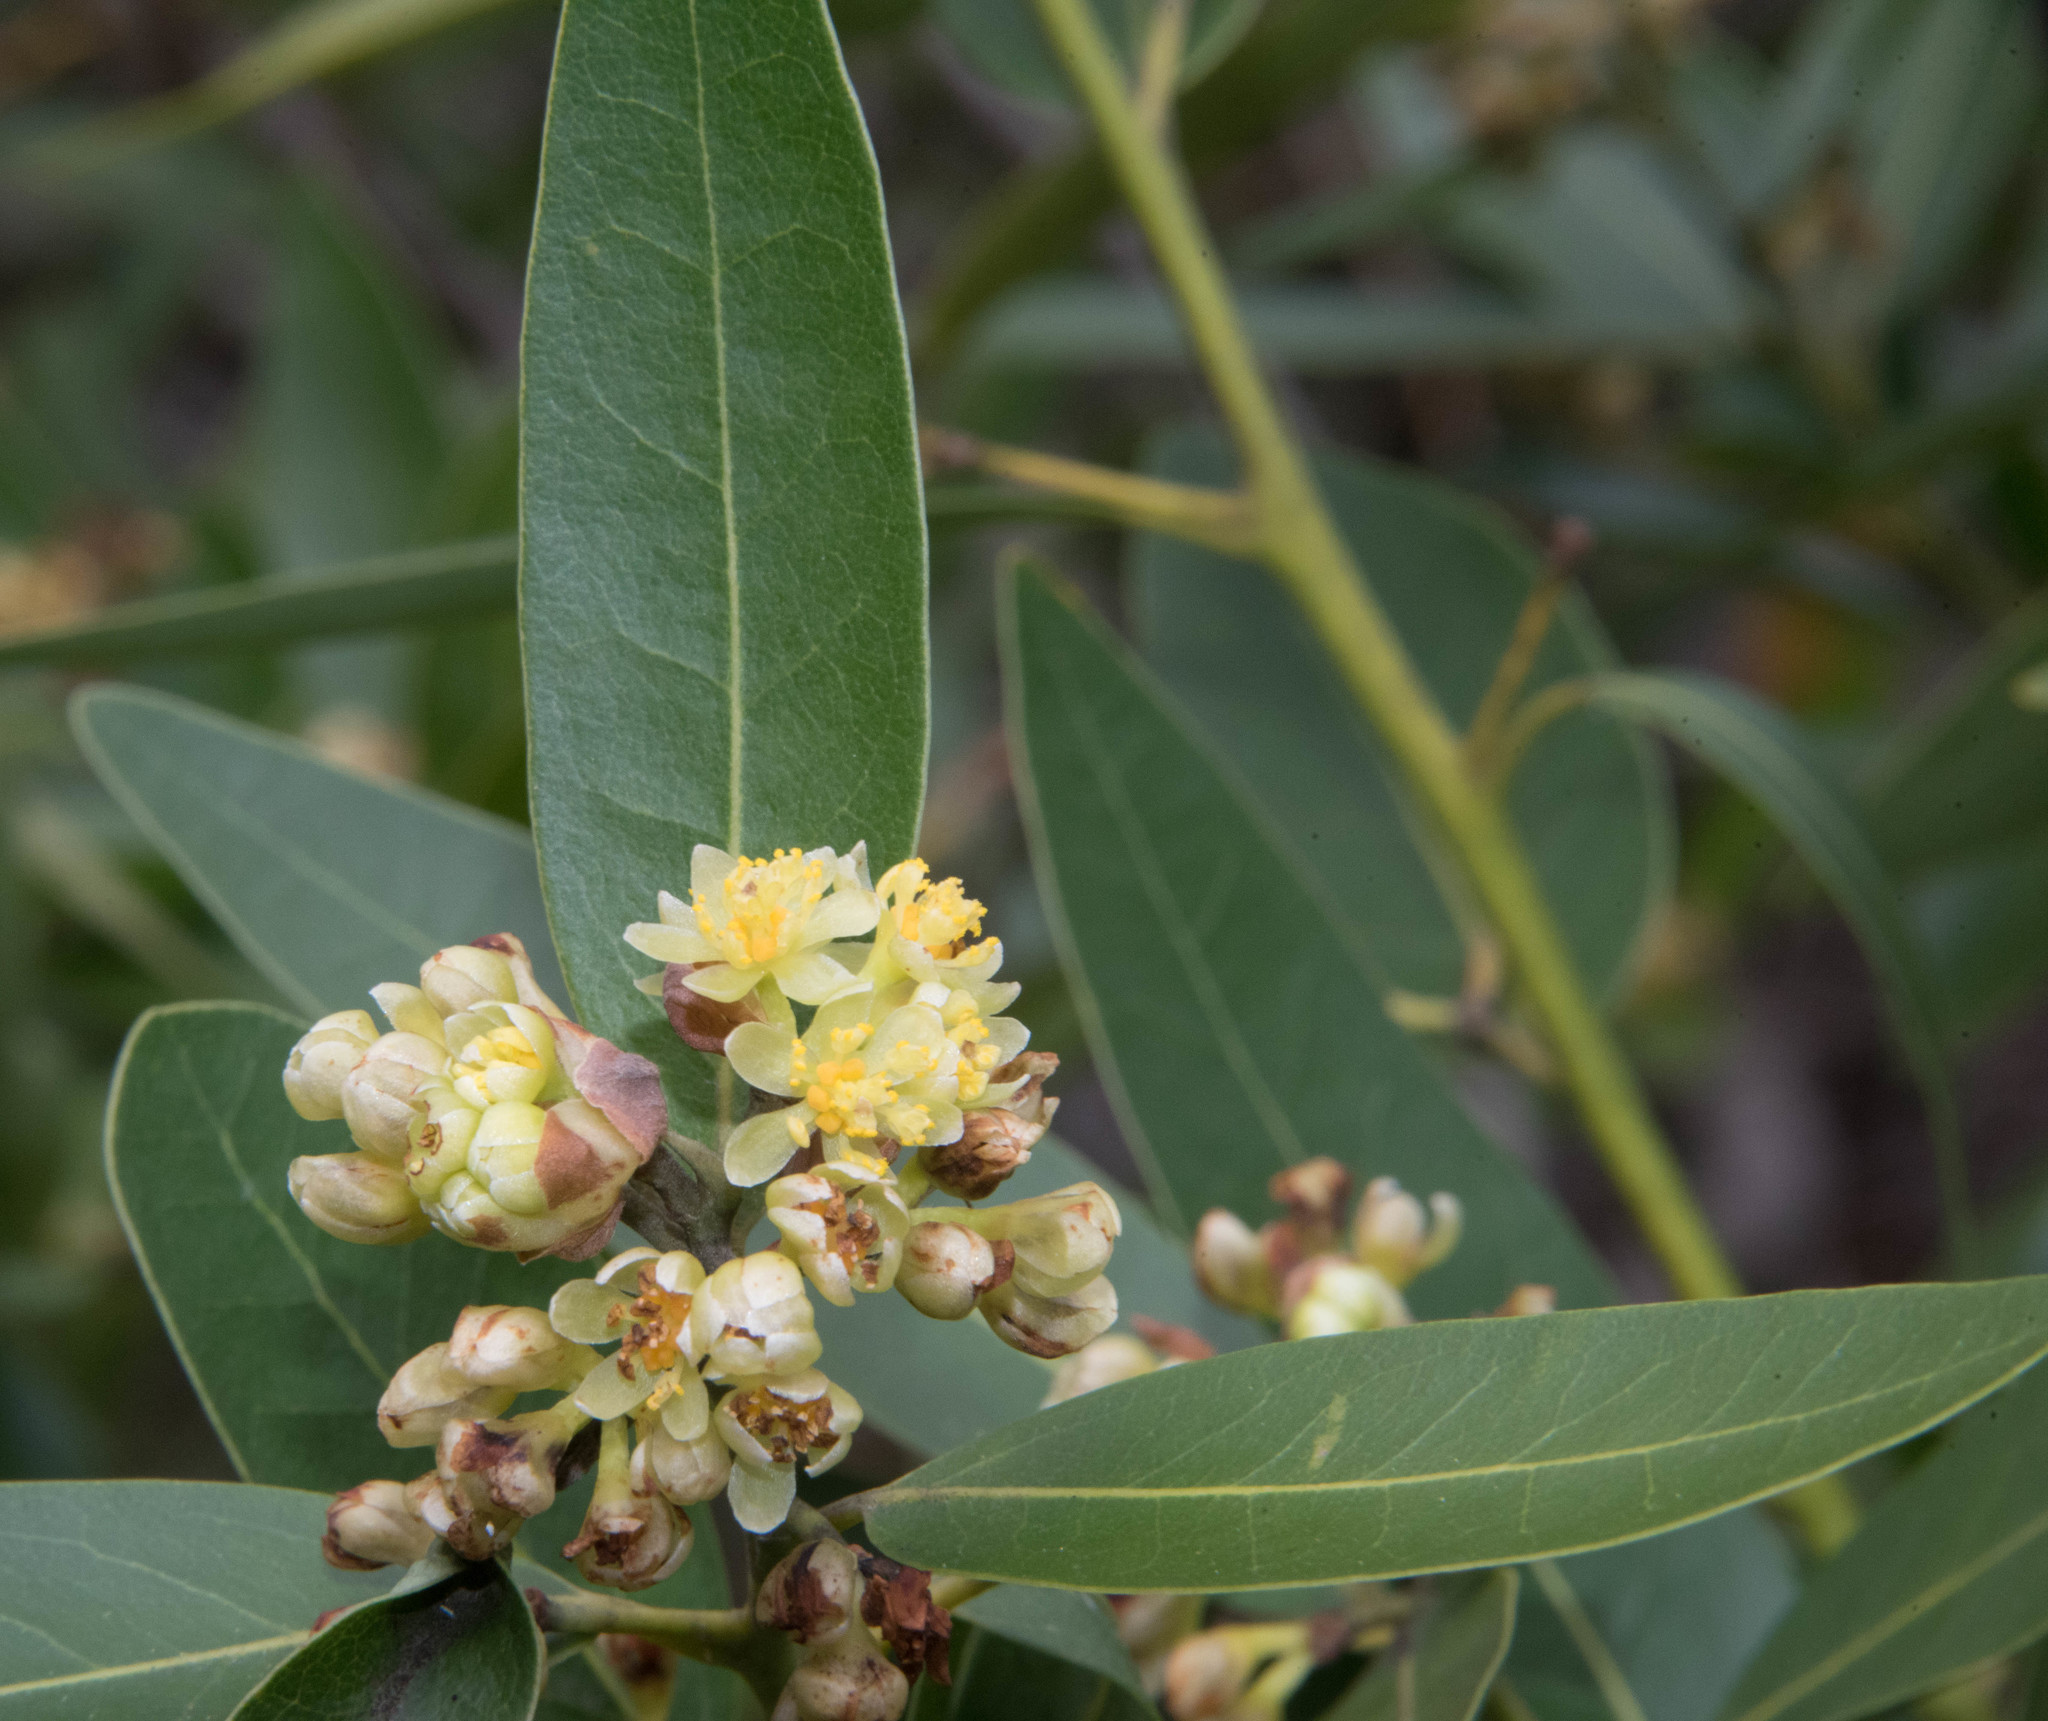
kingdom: Plantae
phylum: Tracheophyta
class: Magnoliopsida
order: Laurales
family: Lauraceae
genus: Umbellularia
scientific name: Umbellularia californica
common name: California bay
